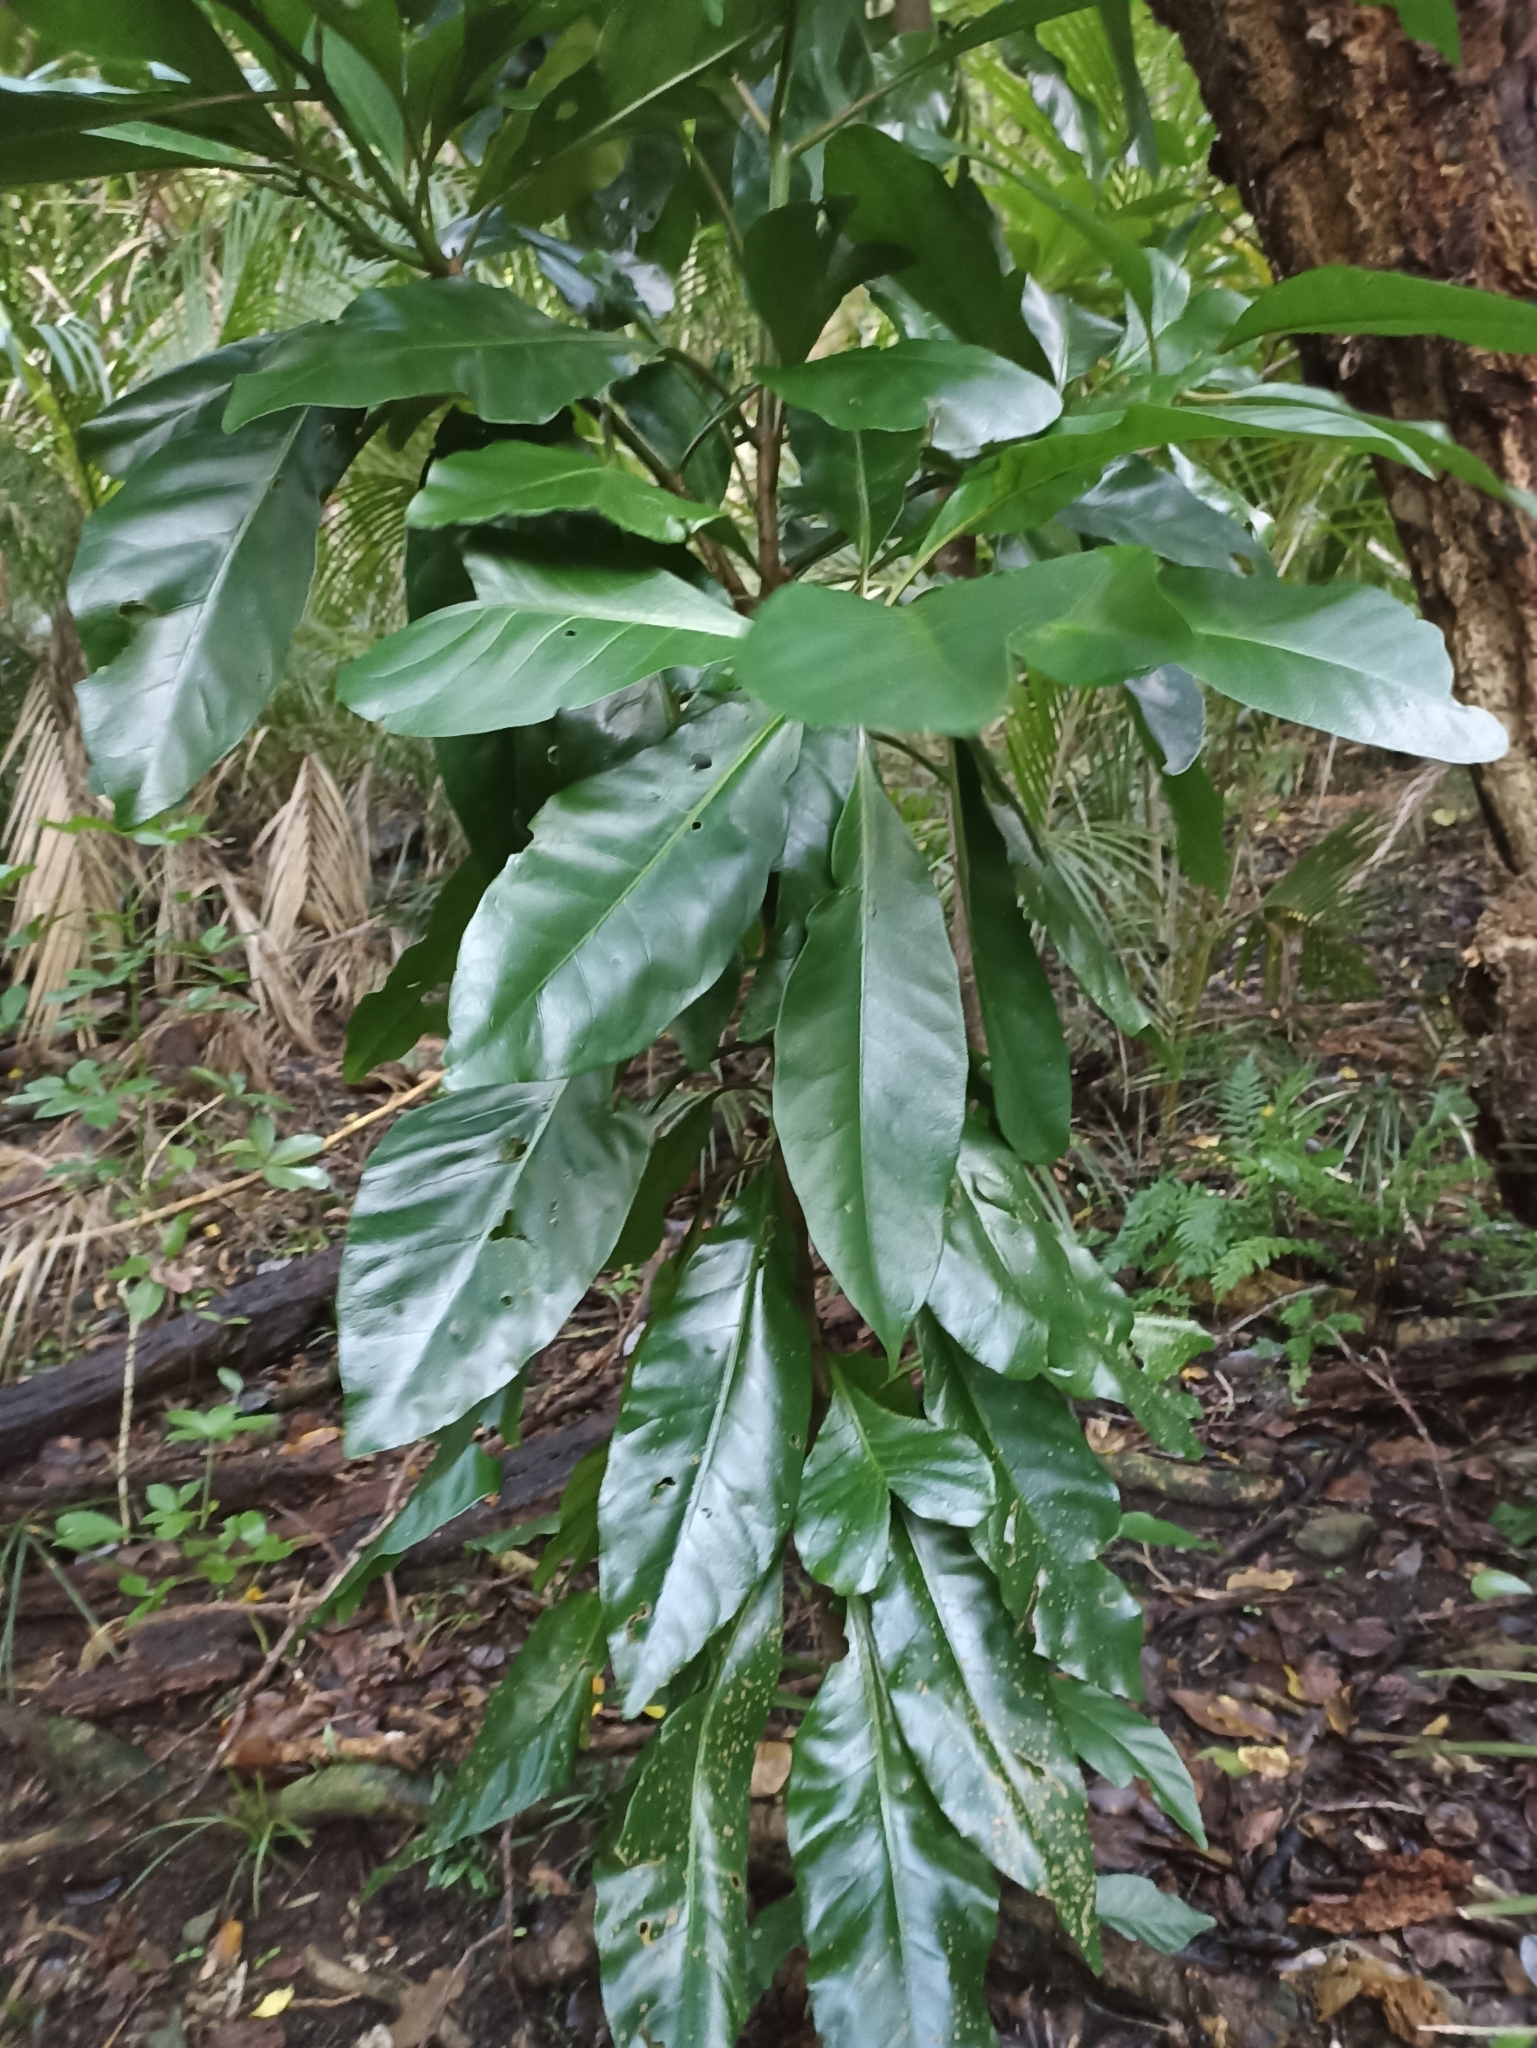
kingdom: Plantae
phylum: Tracheophyta
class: Magnoliopsida
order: Caryophyllales
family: Nyctaginaceae
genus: Ceodes
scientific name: Ceodes brunoniana
